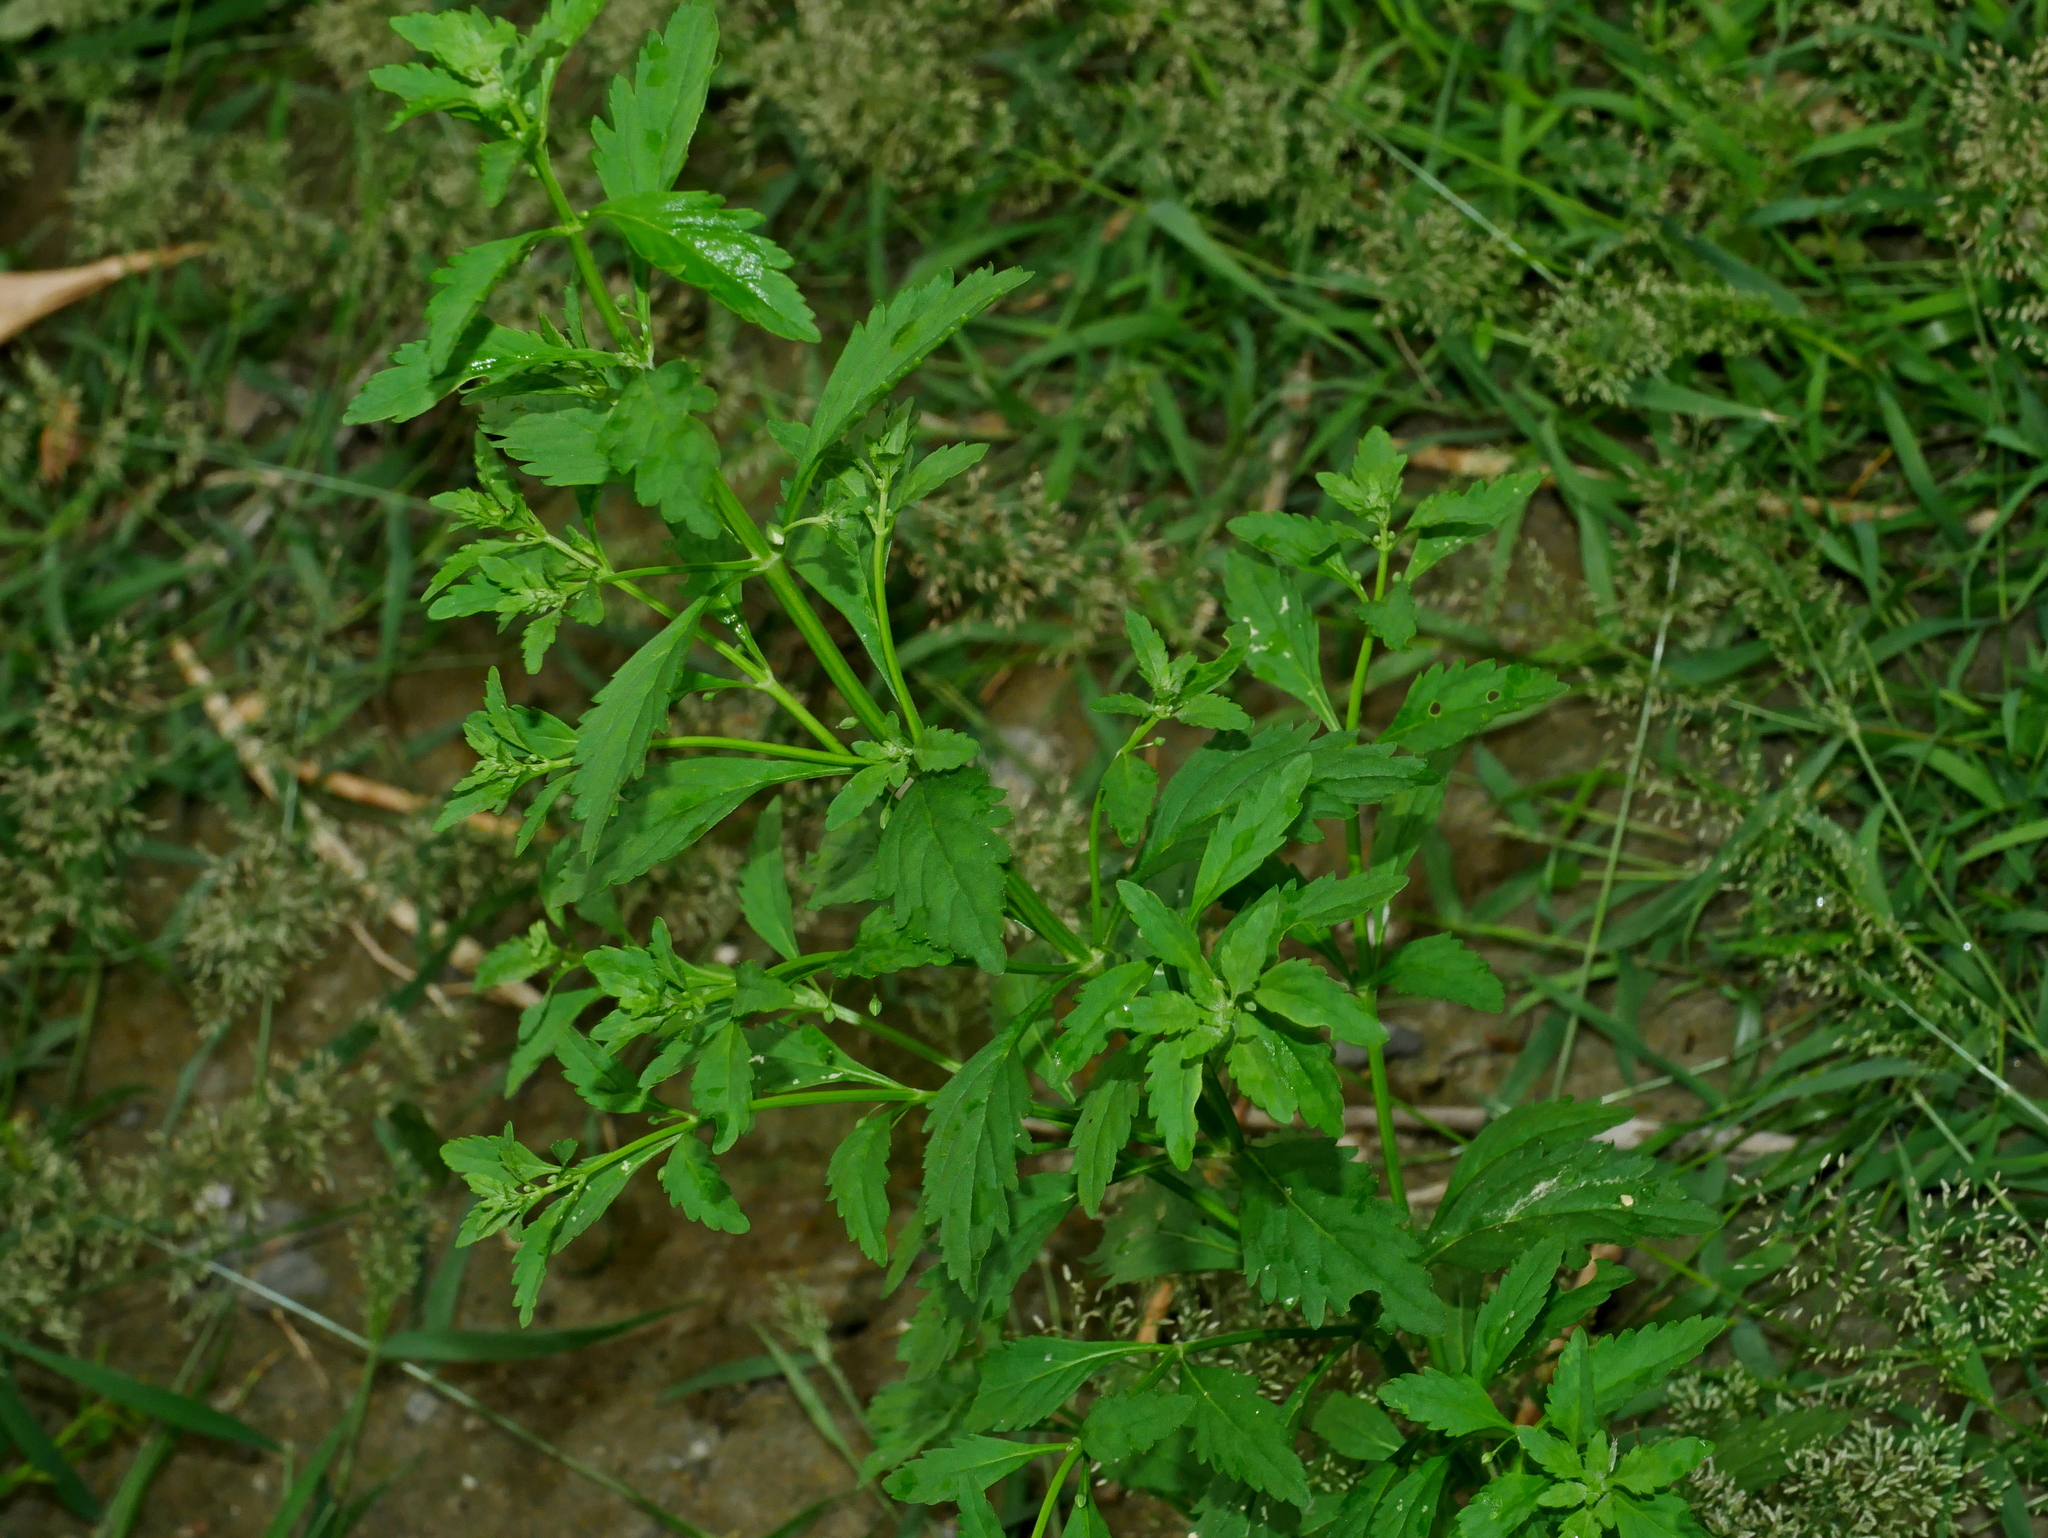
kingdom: Plantae
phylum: Tracheophyta
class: Magnoliopsida
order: Lamiales
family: Plantaginaceae
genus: Scoparia
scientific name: Scoparia dulcis
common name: Scoparia-weed
